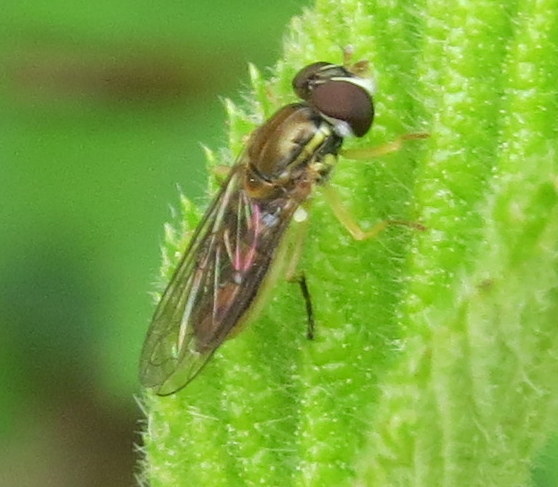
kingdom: Animalia
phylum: Arthropoda
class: Insecta
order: Diptera
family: Syrphidae
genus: Toxomerus
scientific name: Toxomerus marginatus
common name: Syrphid fly
